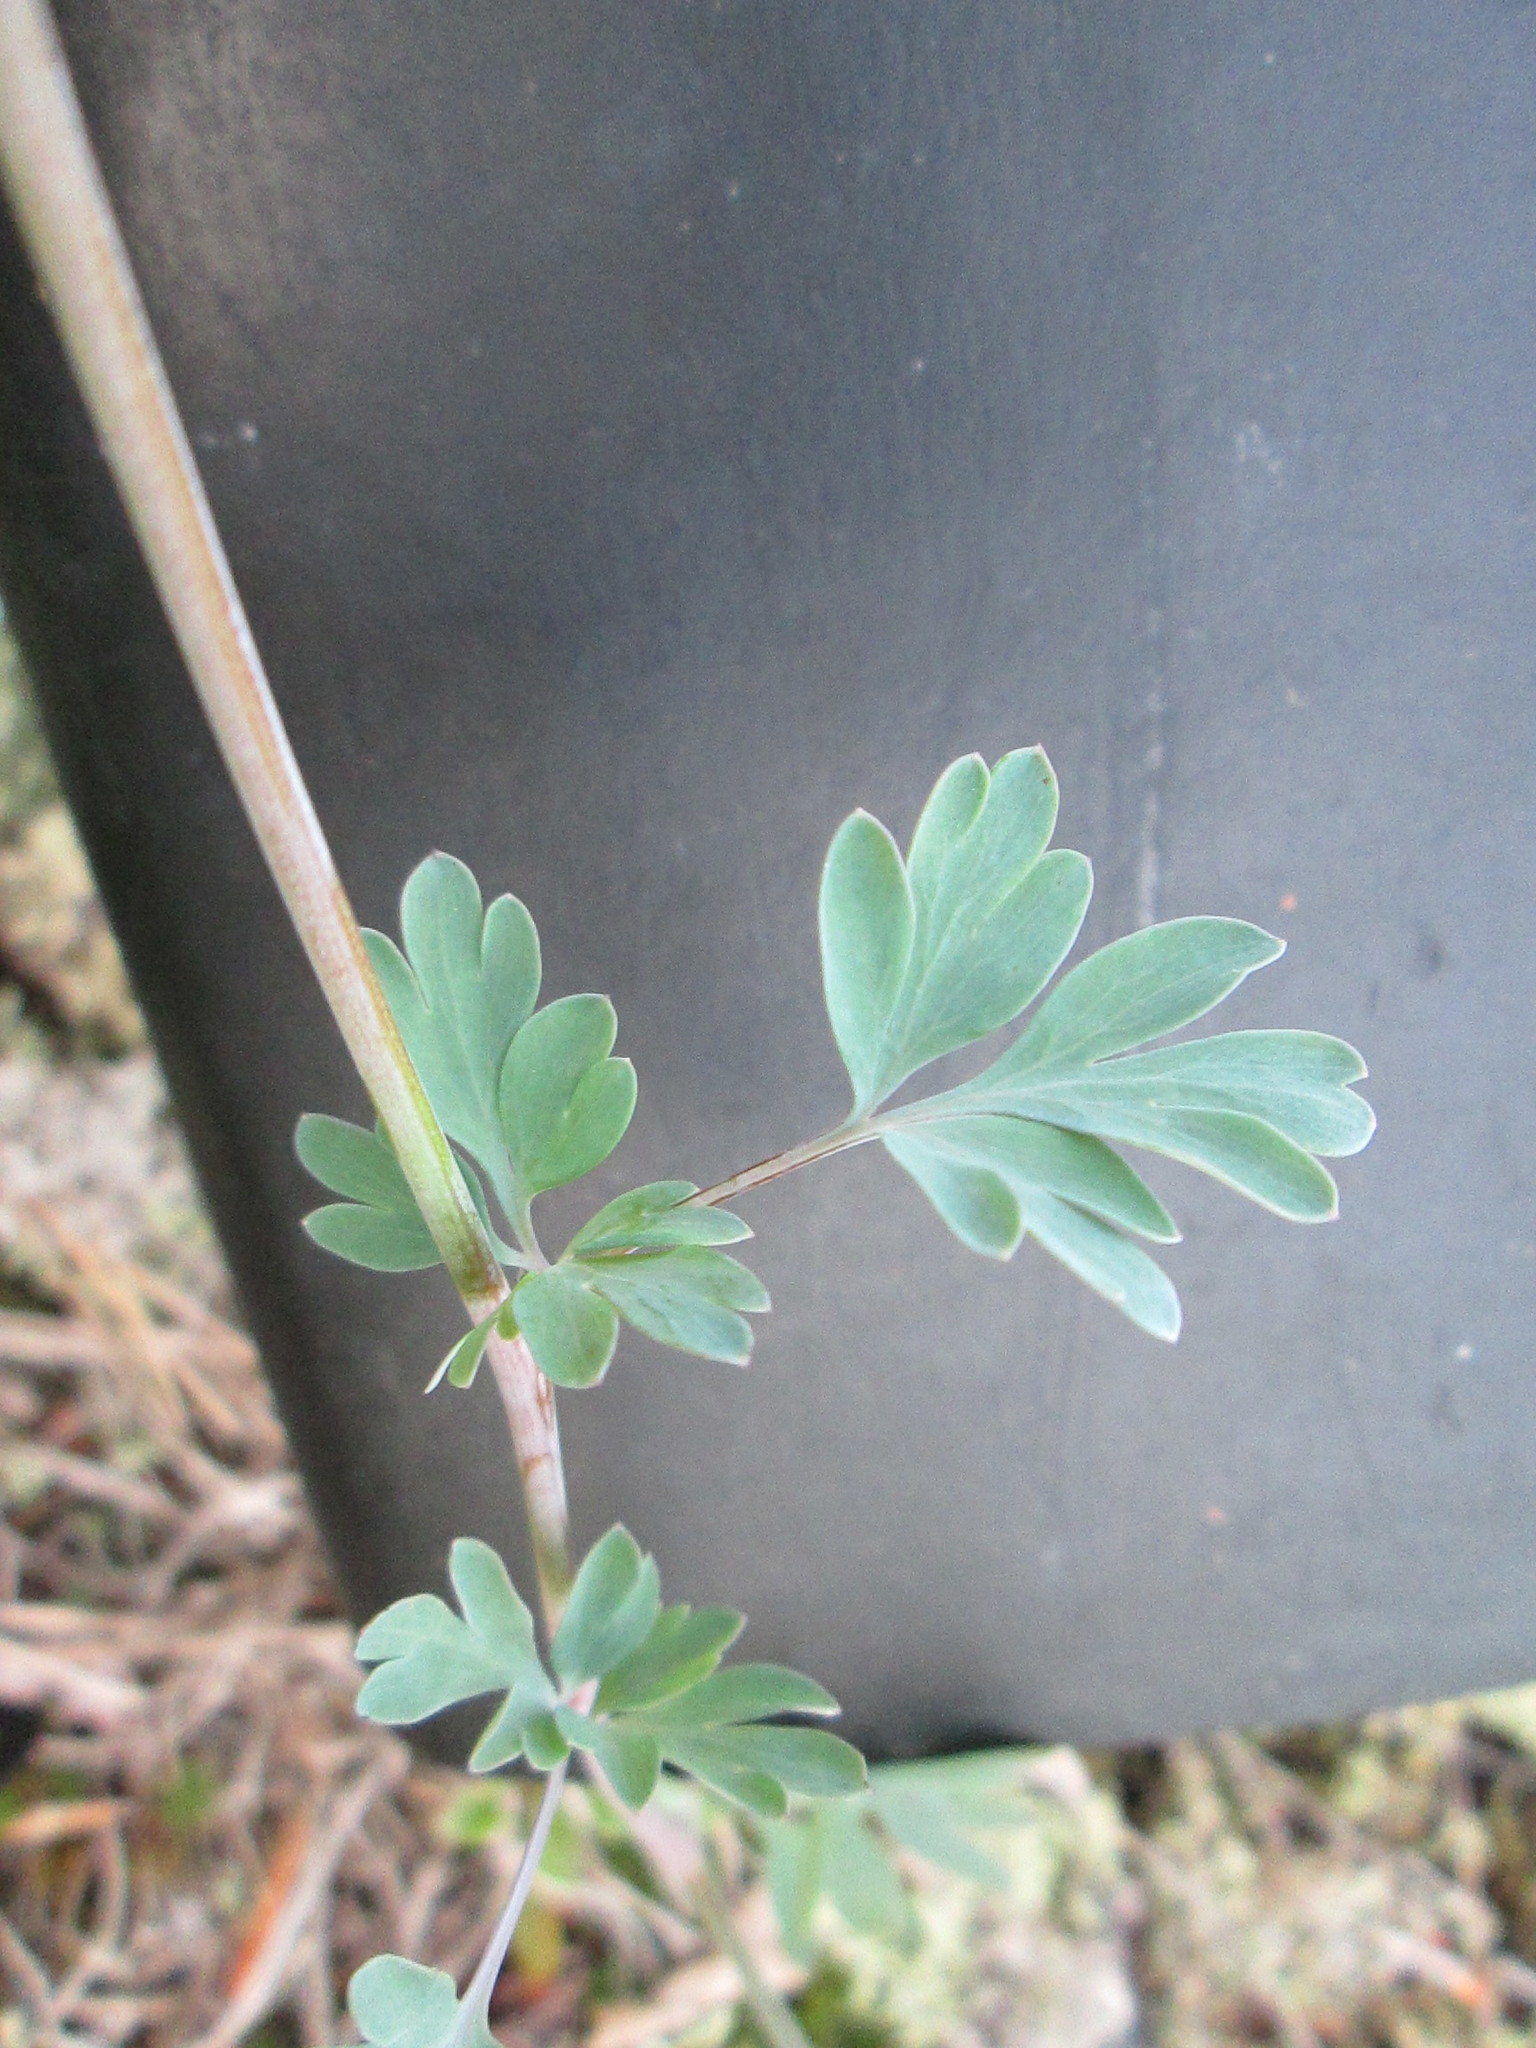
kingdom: Plantae
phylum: Tracheophyta
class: Magnoliopsida
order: Ranunculales
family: Papaveraceae
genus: Capnoides
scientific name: Capnoides sempervirens
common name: Rock harlequin
